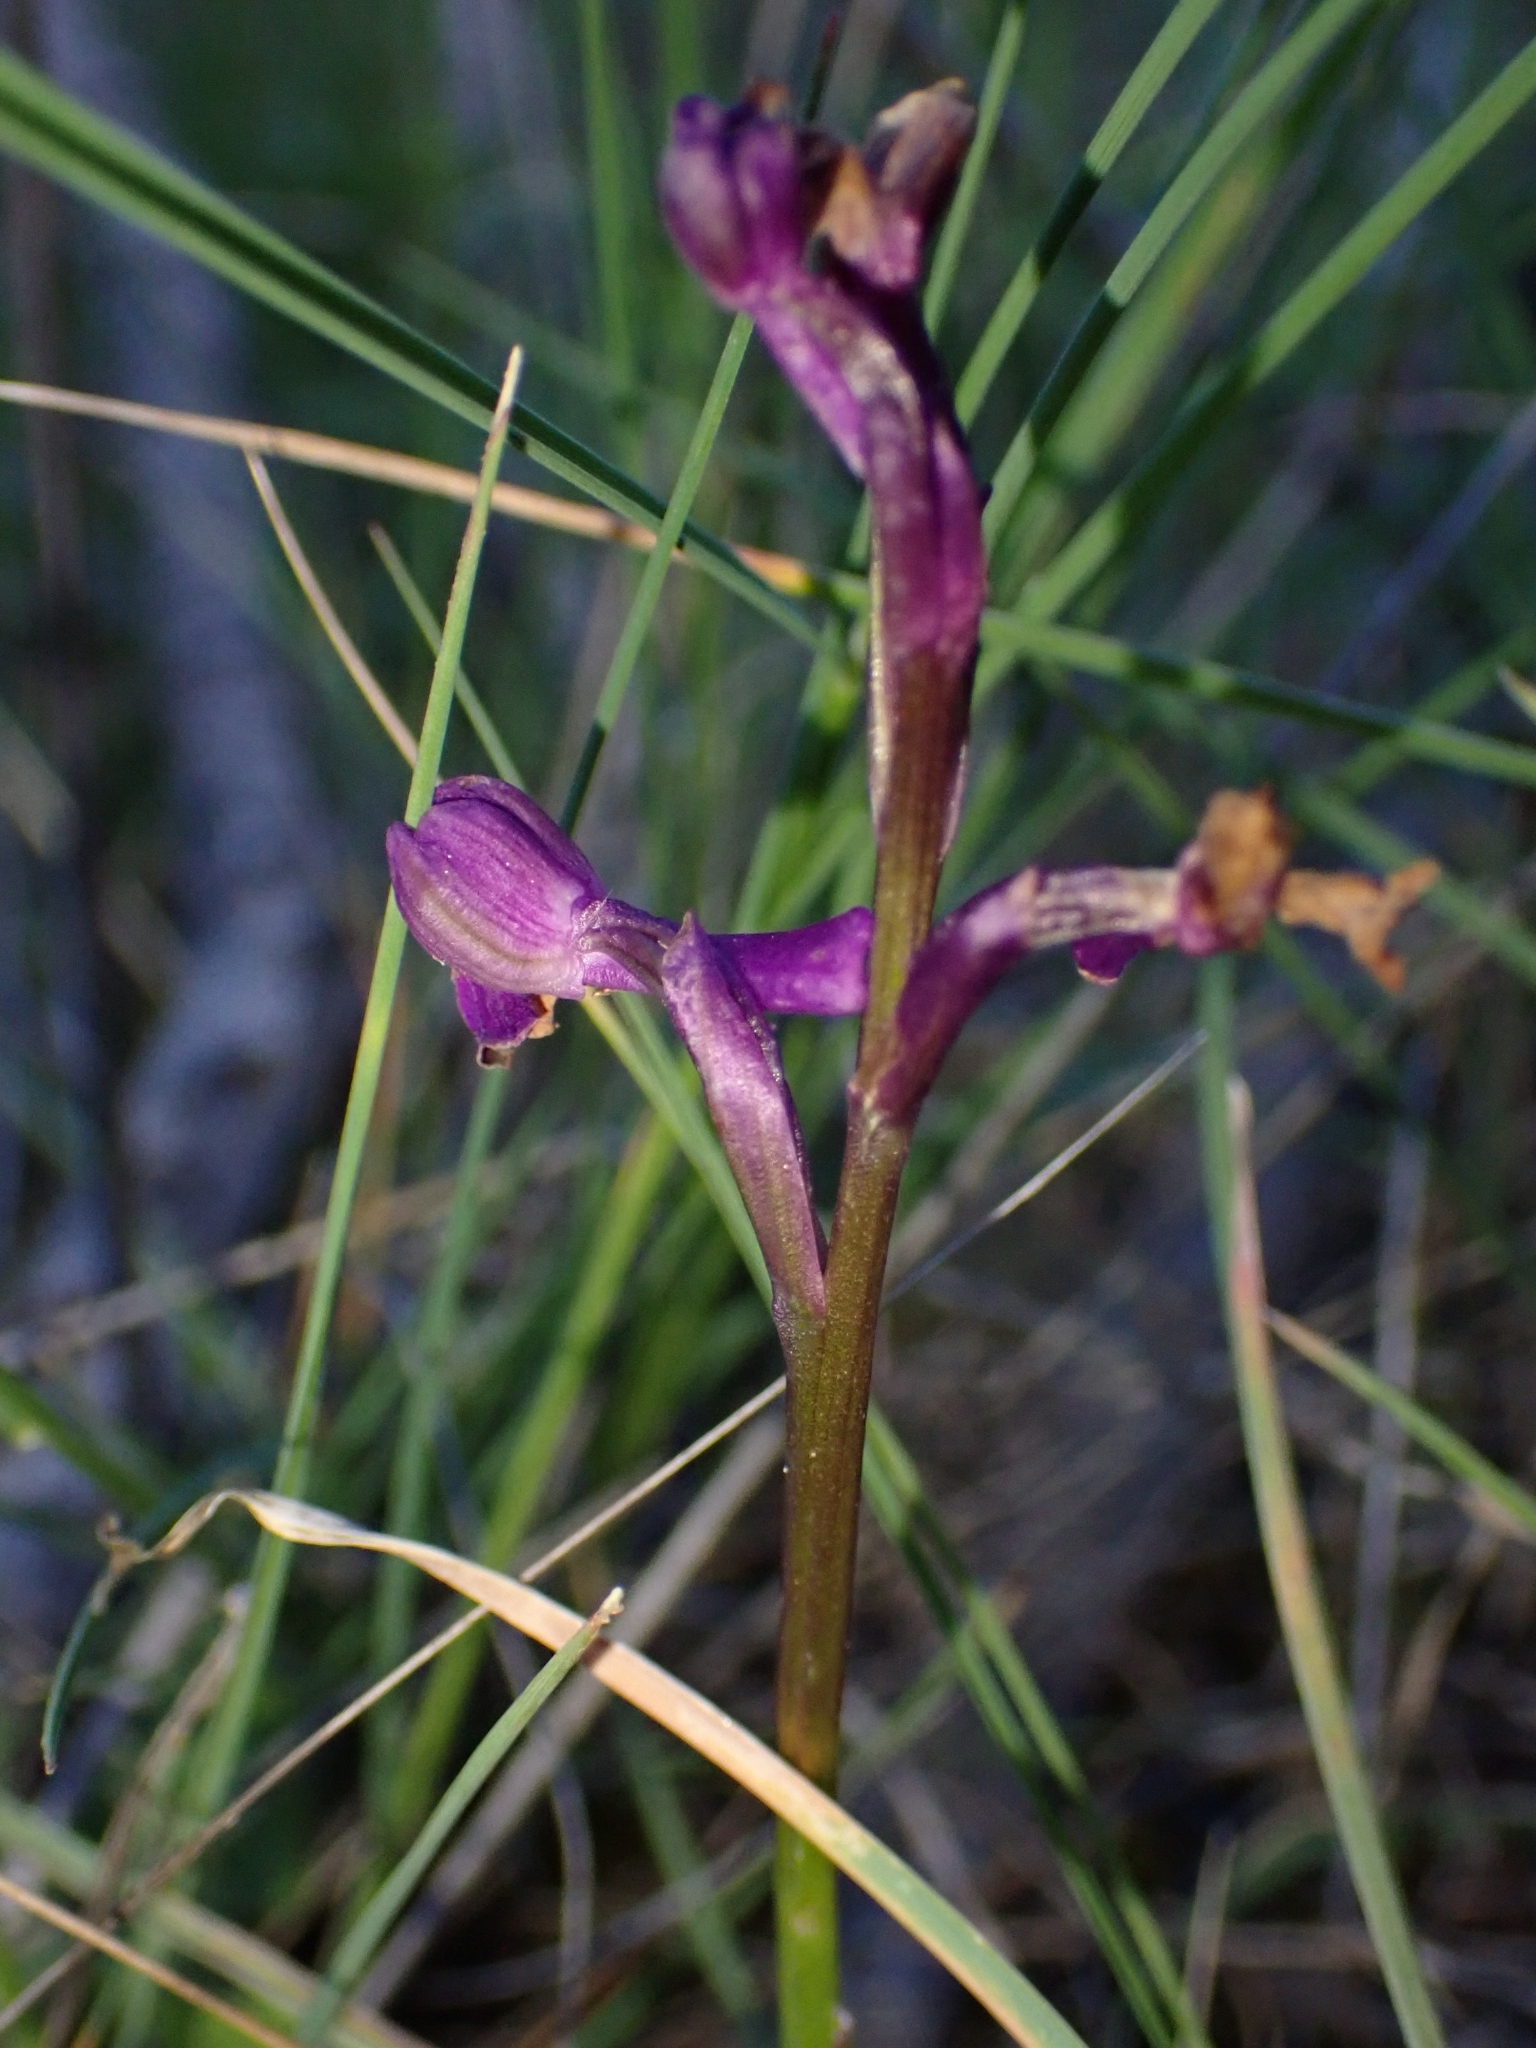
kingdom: Plantae
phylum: Tracheophyta
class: Liliopsida
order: Asparagales
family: Orchidaceae
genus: Anacamptis
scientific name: Anacamptis morio
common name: Green-winged orchid
